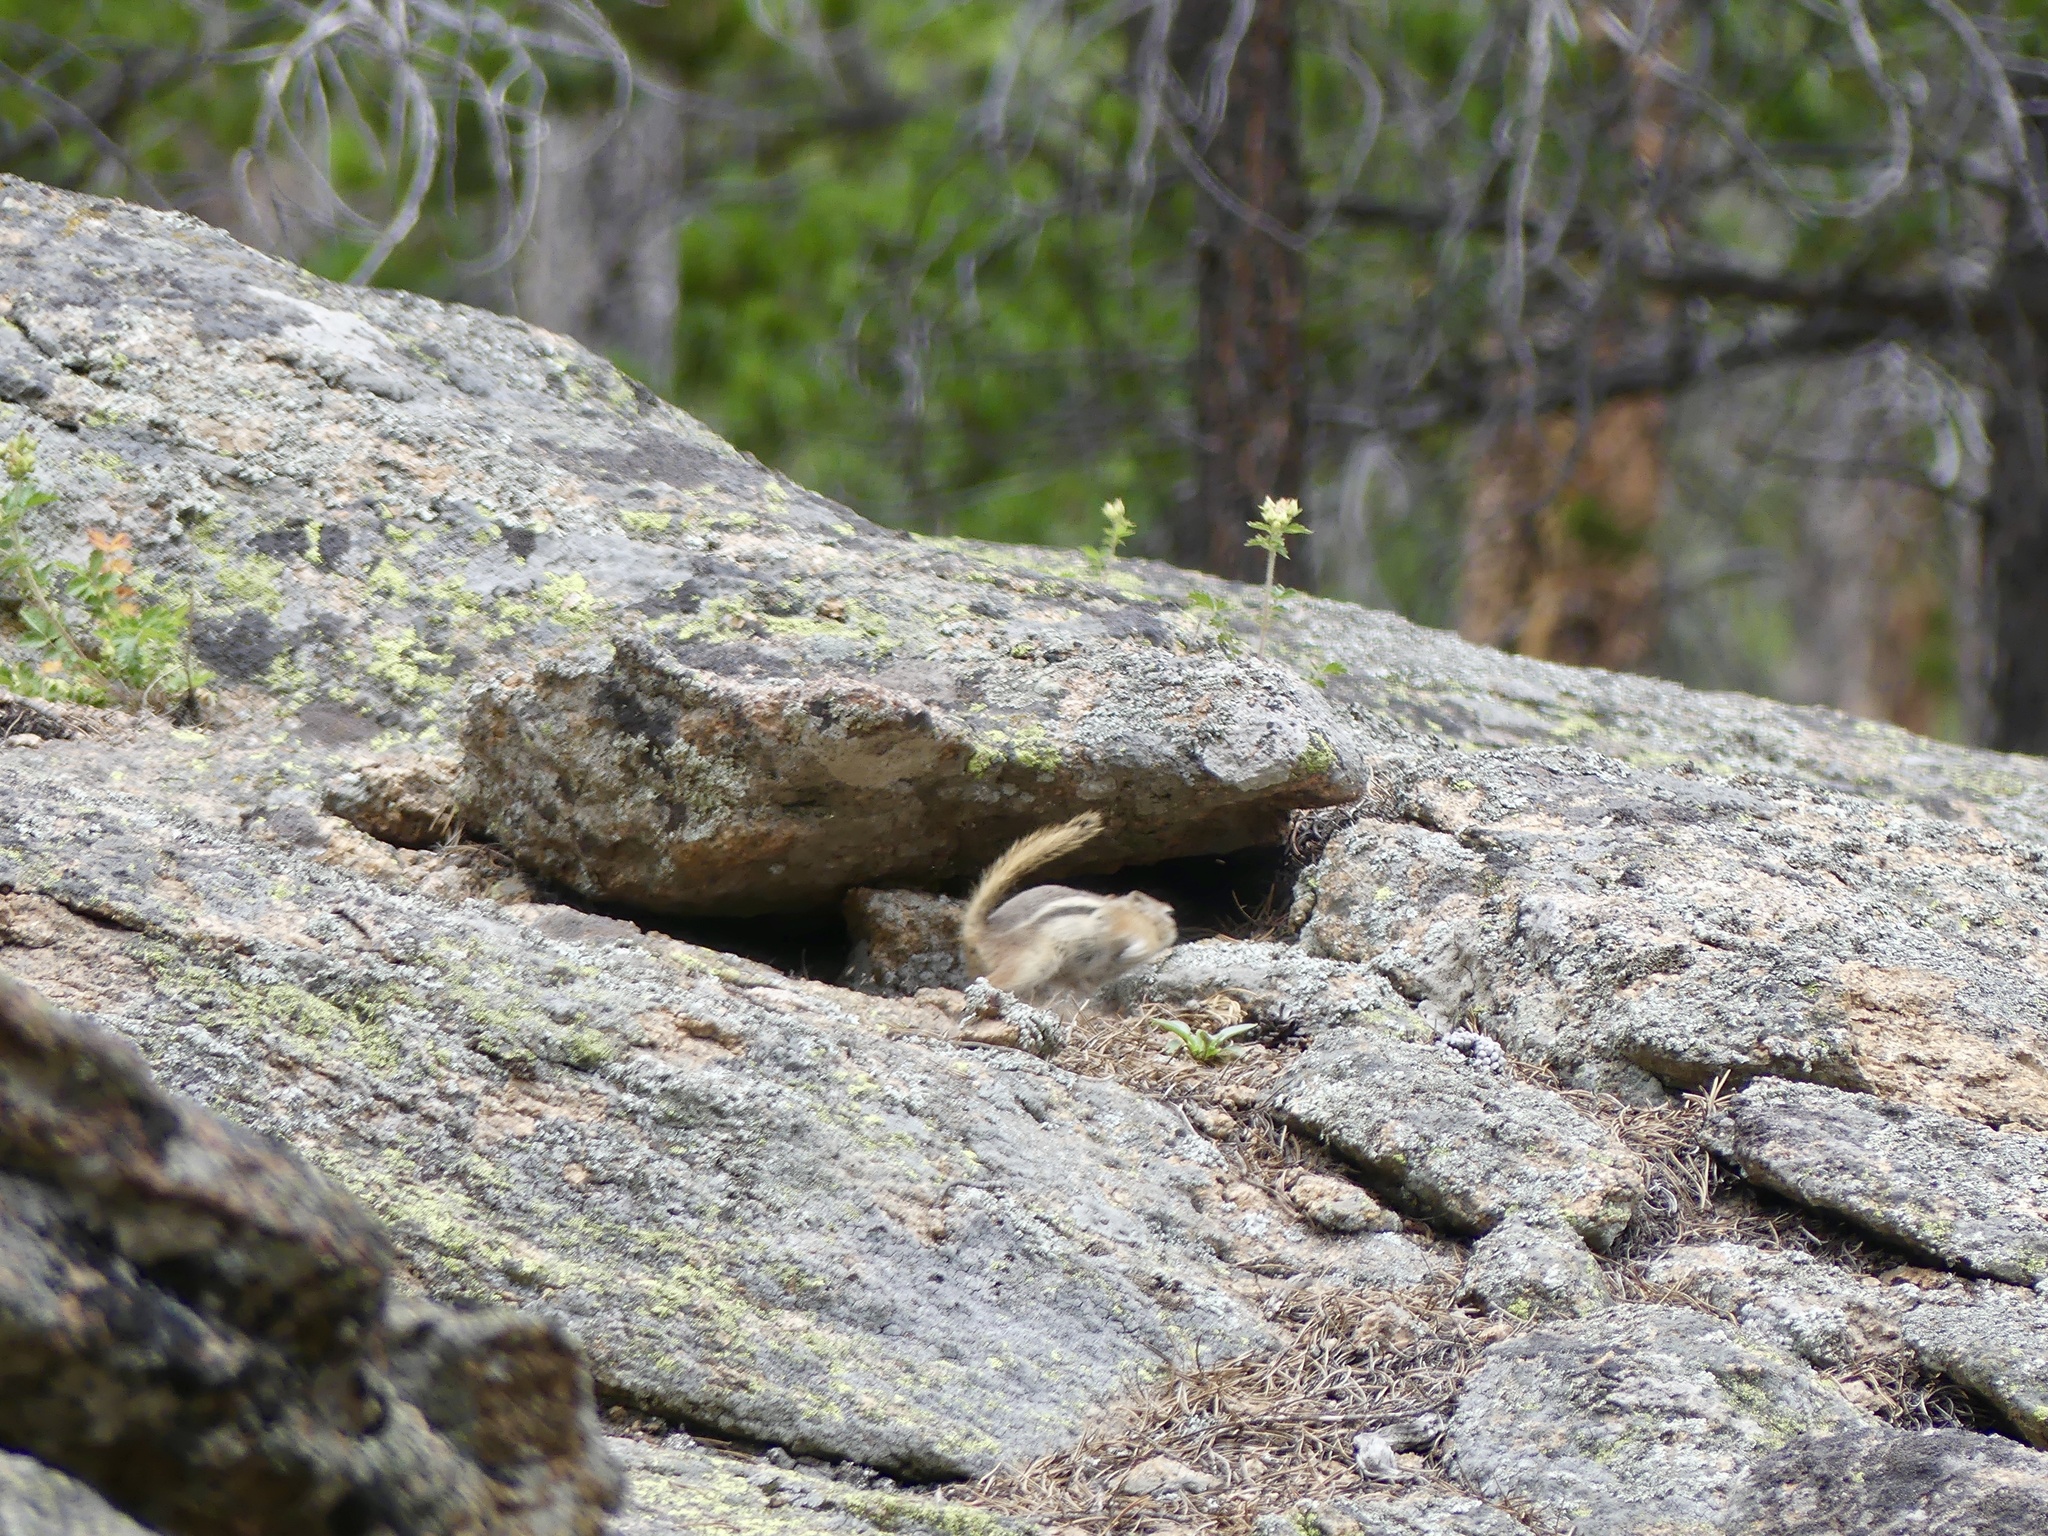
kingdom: Animalia
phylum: Chordata
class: Mammalia
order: Rodentia
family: Sciuridae
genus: Callospermophilus
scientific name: Callospermophilus lateralis
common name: Golden-mantled ground squirrel
